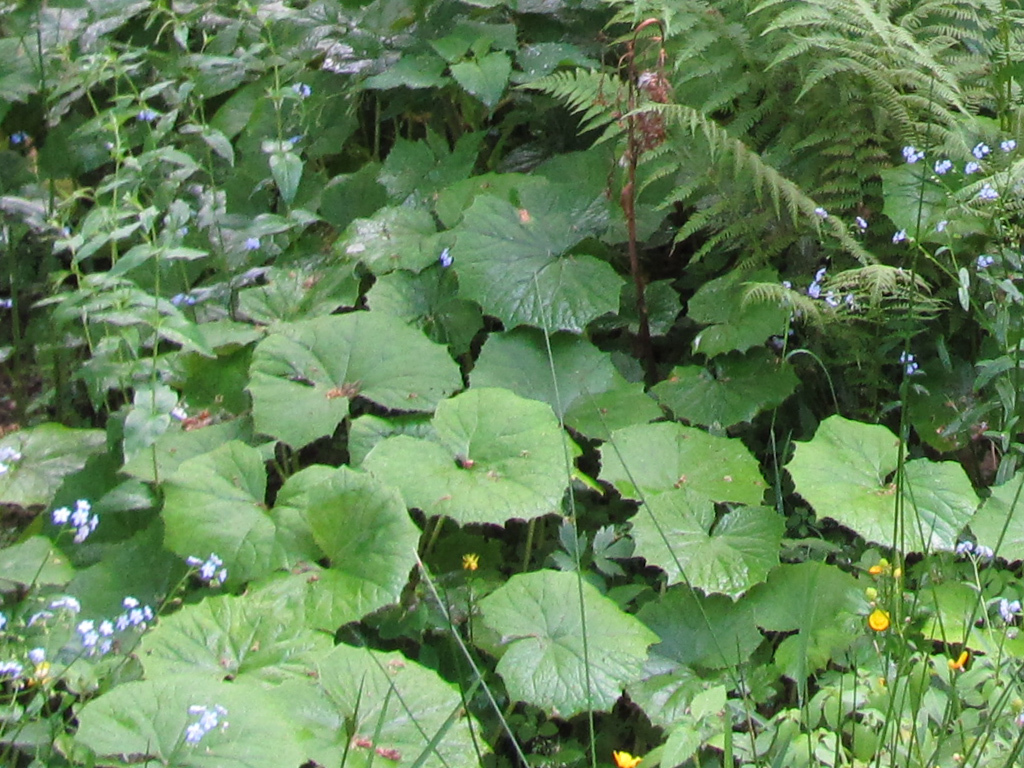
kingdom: Plantae
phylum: Tracheophyta
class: Magnoliopsida
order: Asterales
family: Asteraceae
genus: Tussilago
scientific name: Tussilago farfara
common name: Coltsfoot
